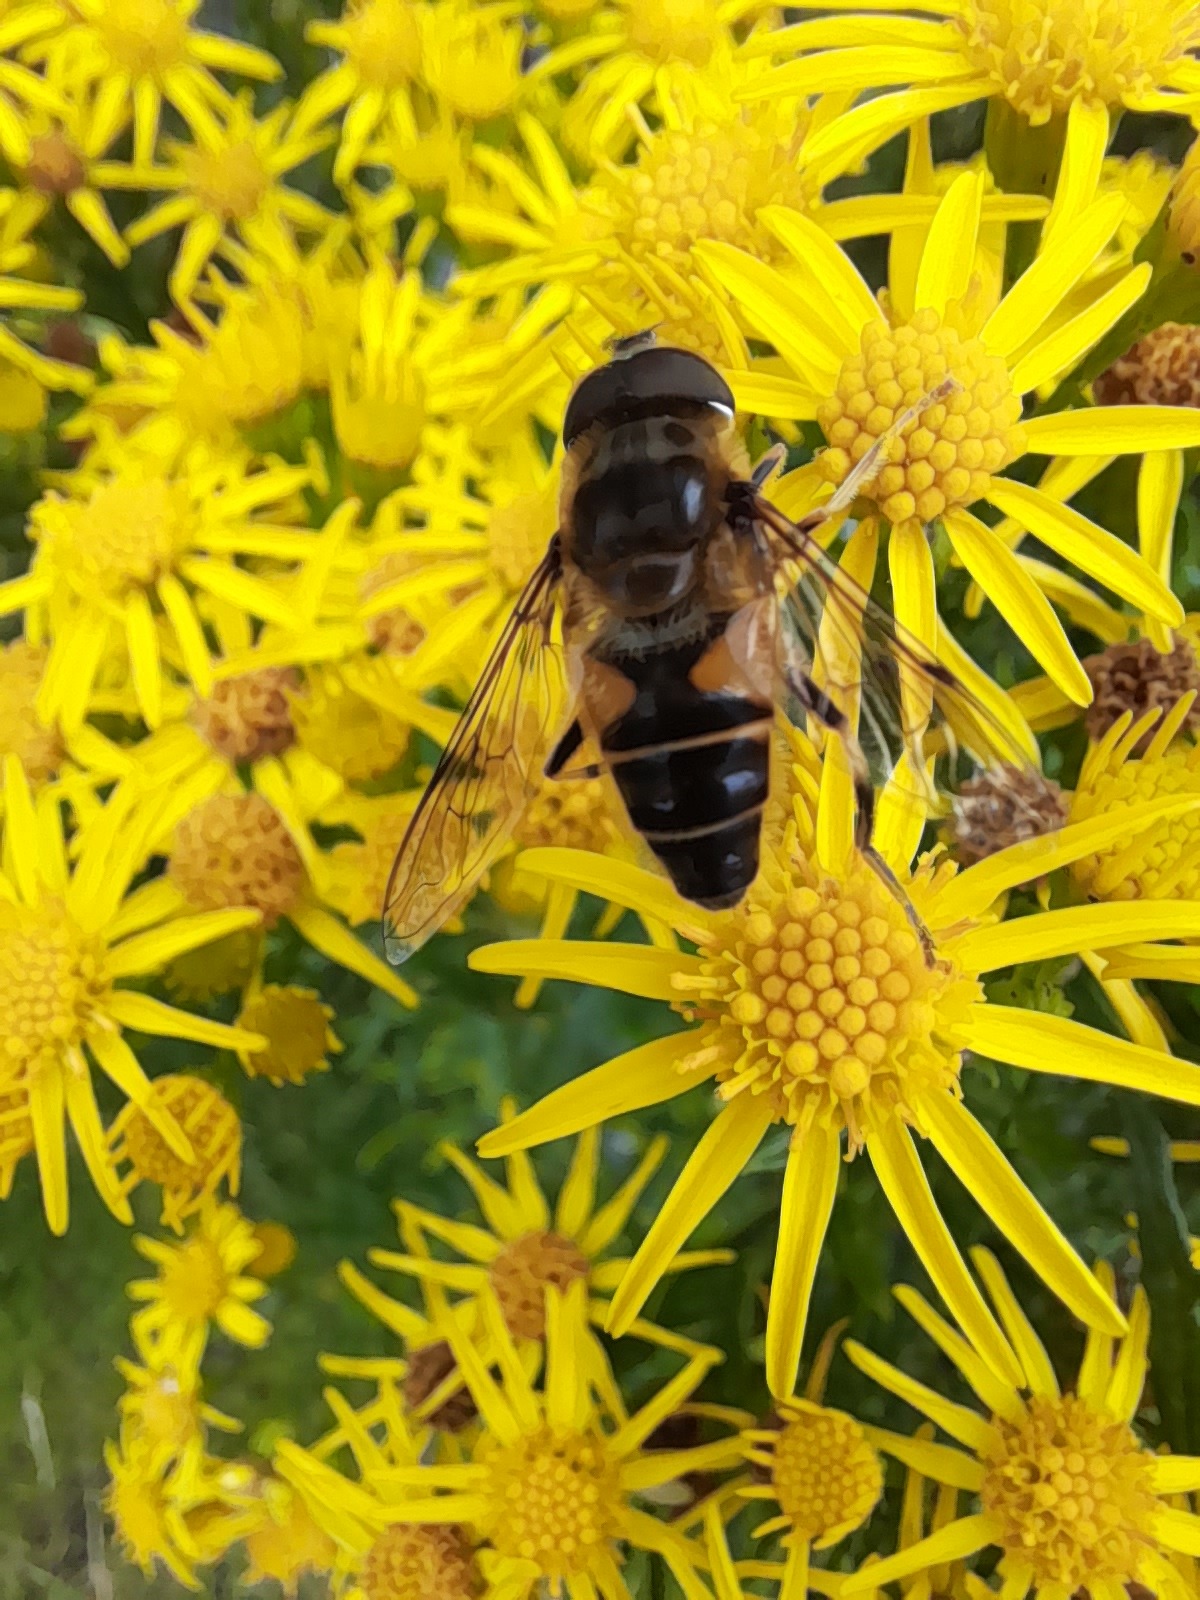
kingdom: Animalia
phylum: Arthropoda
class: Insecta
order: Diptera
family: Syrphidae
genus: Eristalis
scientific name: Eristalis pertinax
